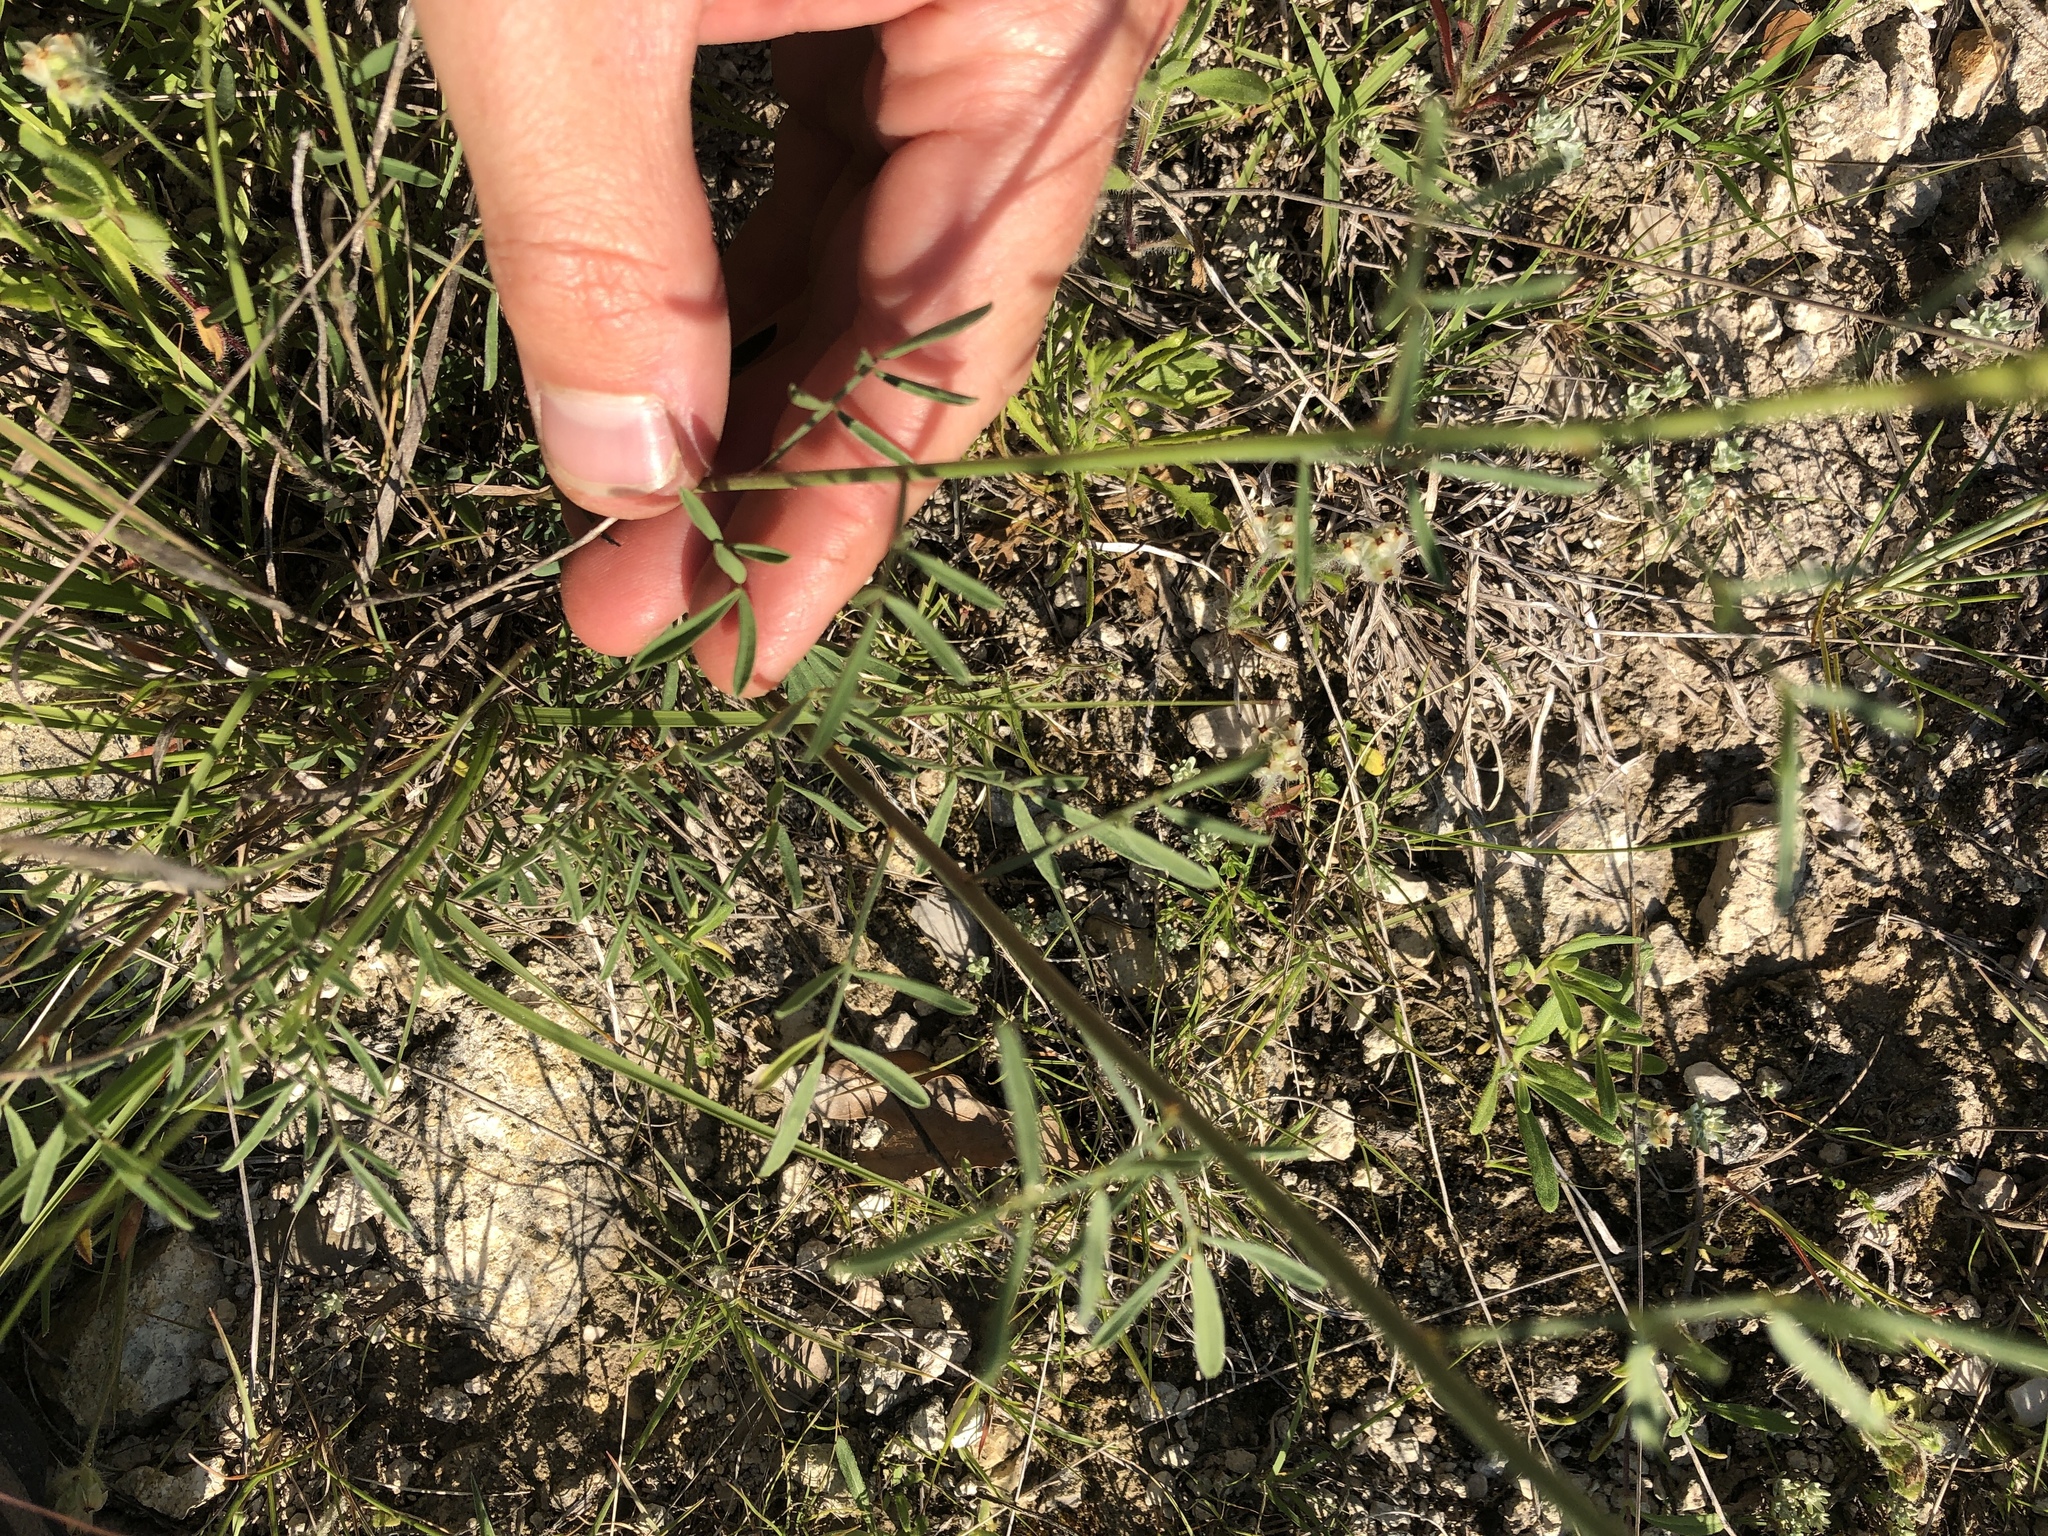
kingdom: Plantae
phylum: Tracheophyta
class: Magnoliopsida
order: Fabales
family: Fabaceae
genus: Dalea
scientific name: Dalea aurea
